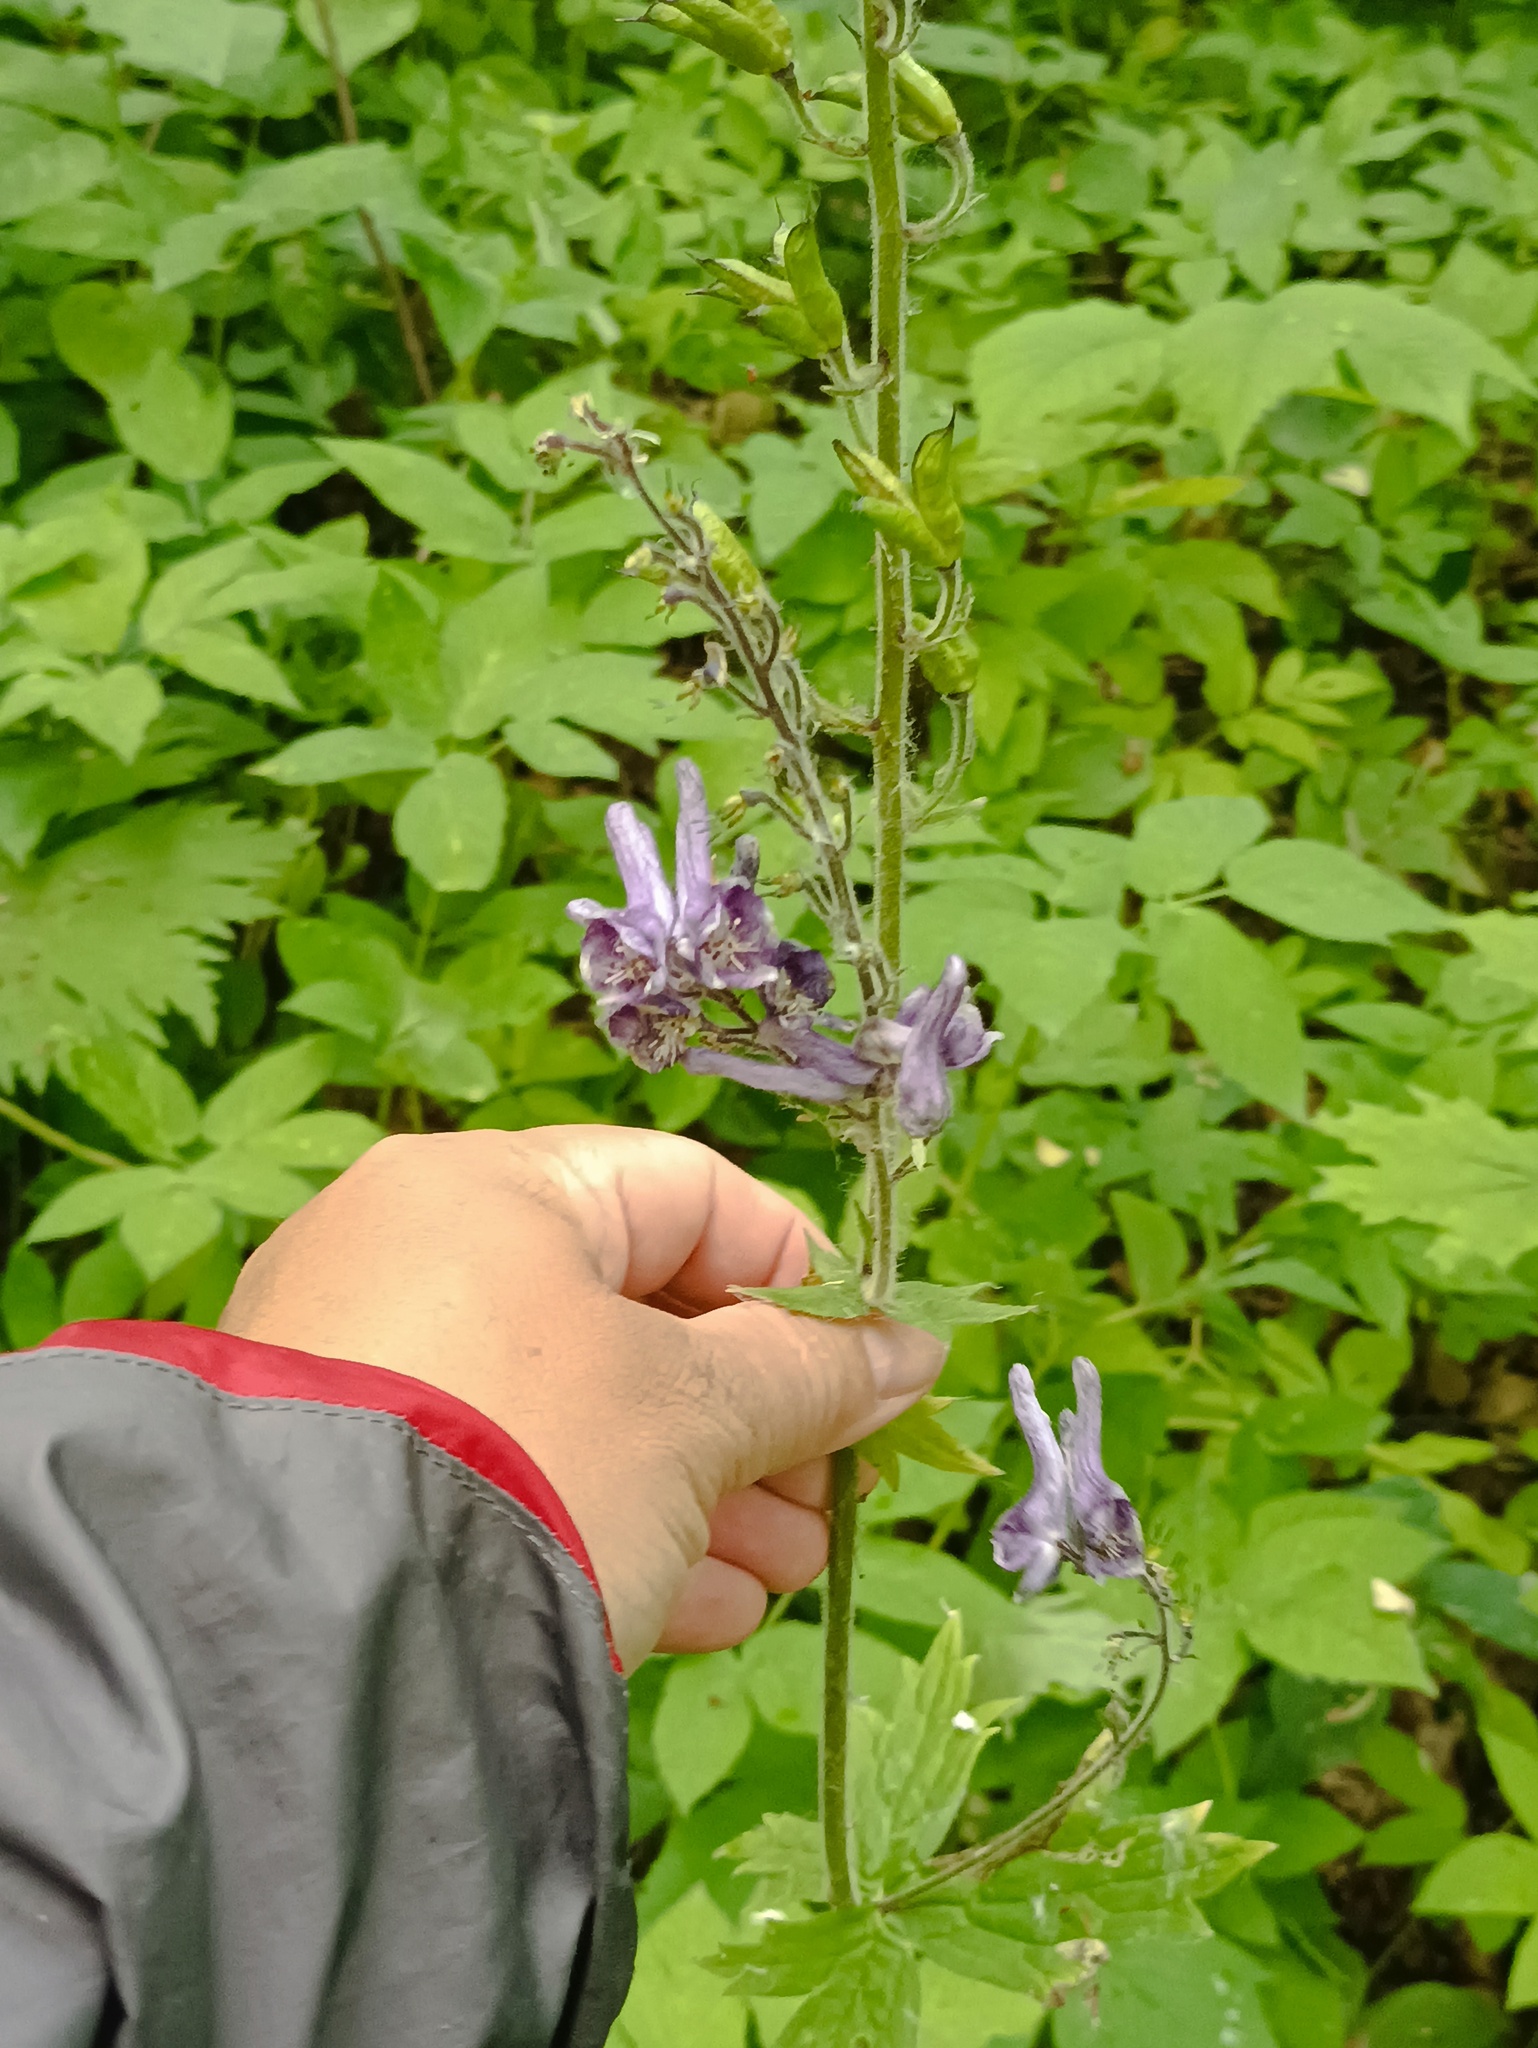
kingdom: Plantae
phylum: Tracheophyta
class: Magnoliopsida
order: Ranunculales
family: Ranunculaceae
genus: Aconitum
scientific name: Aconitum septentrionale
